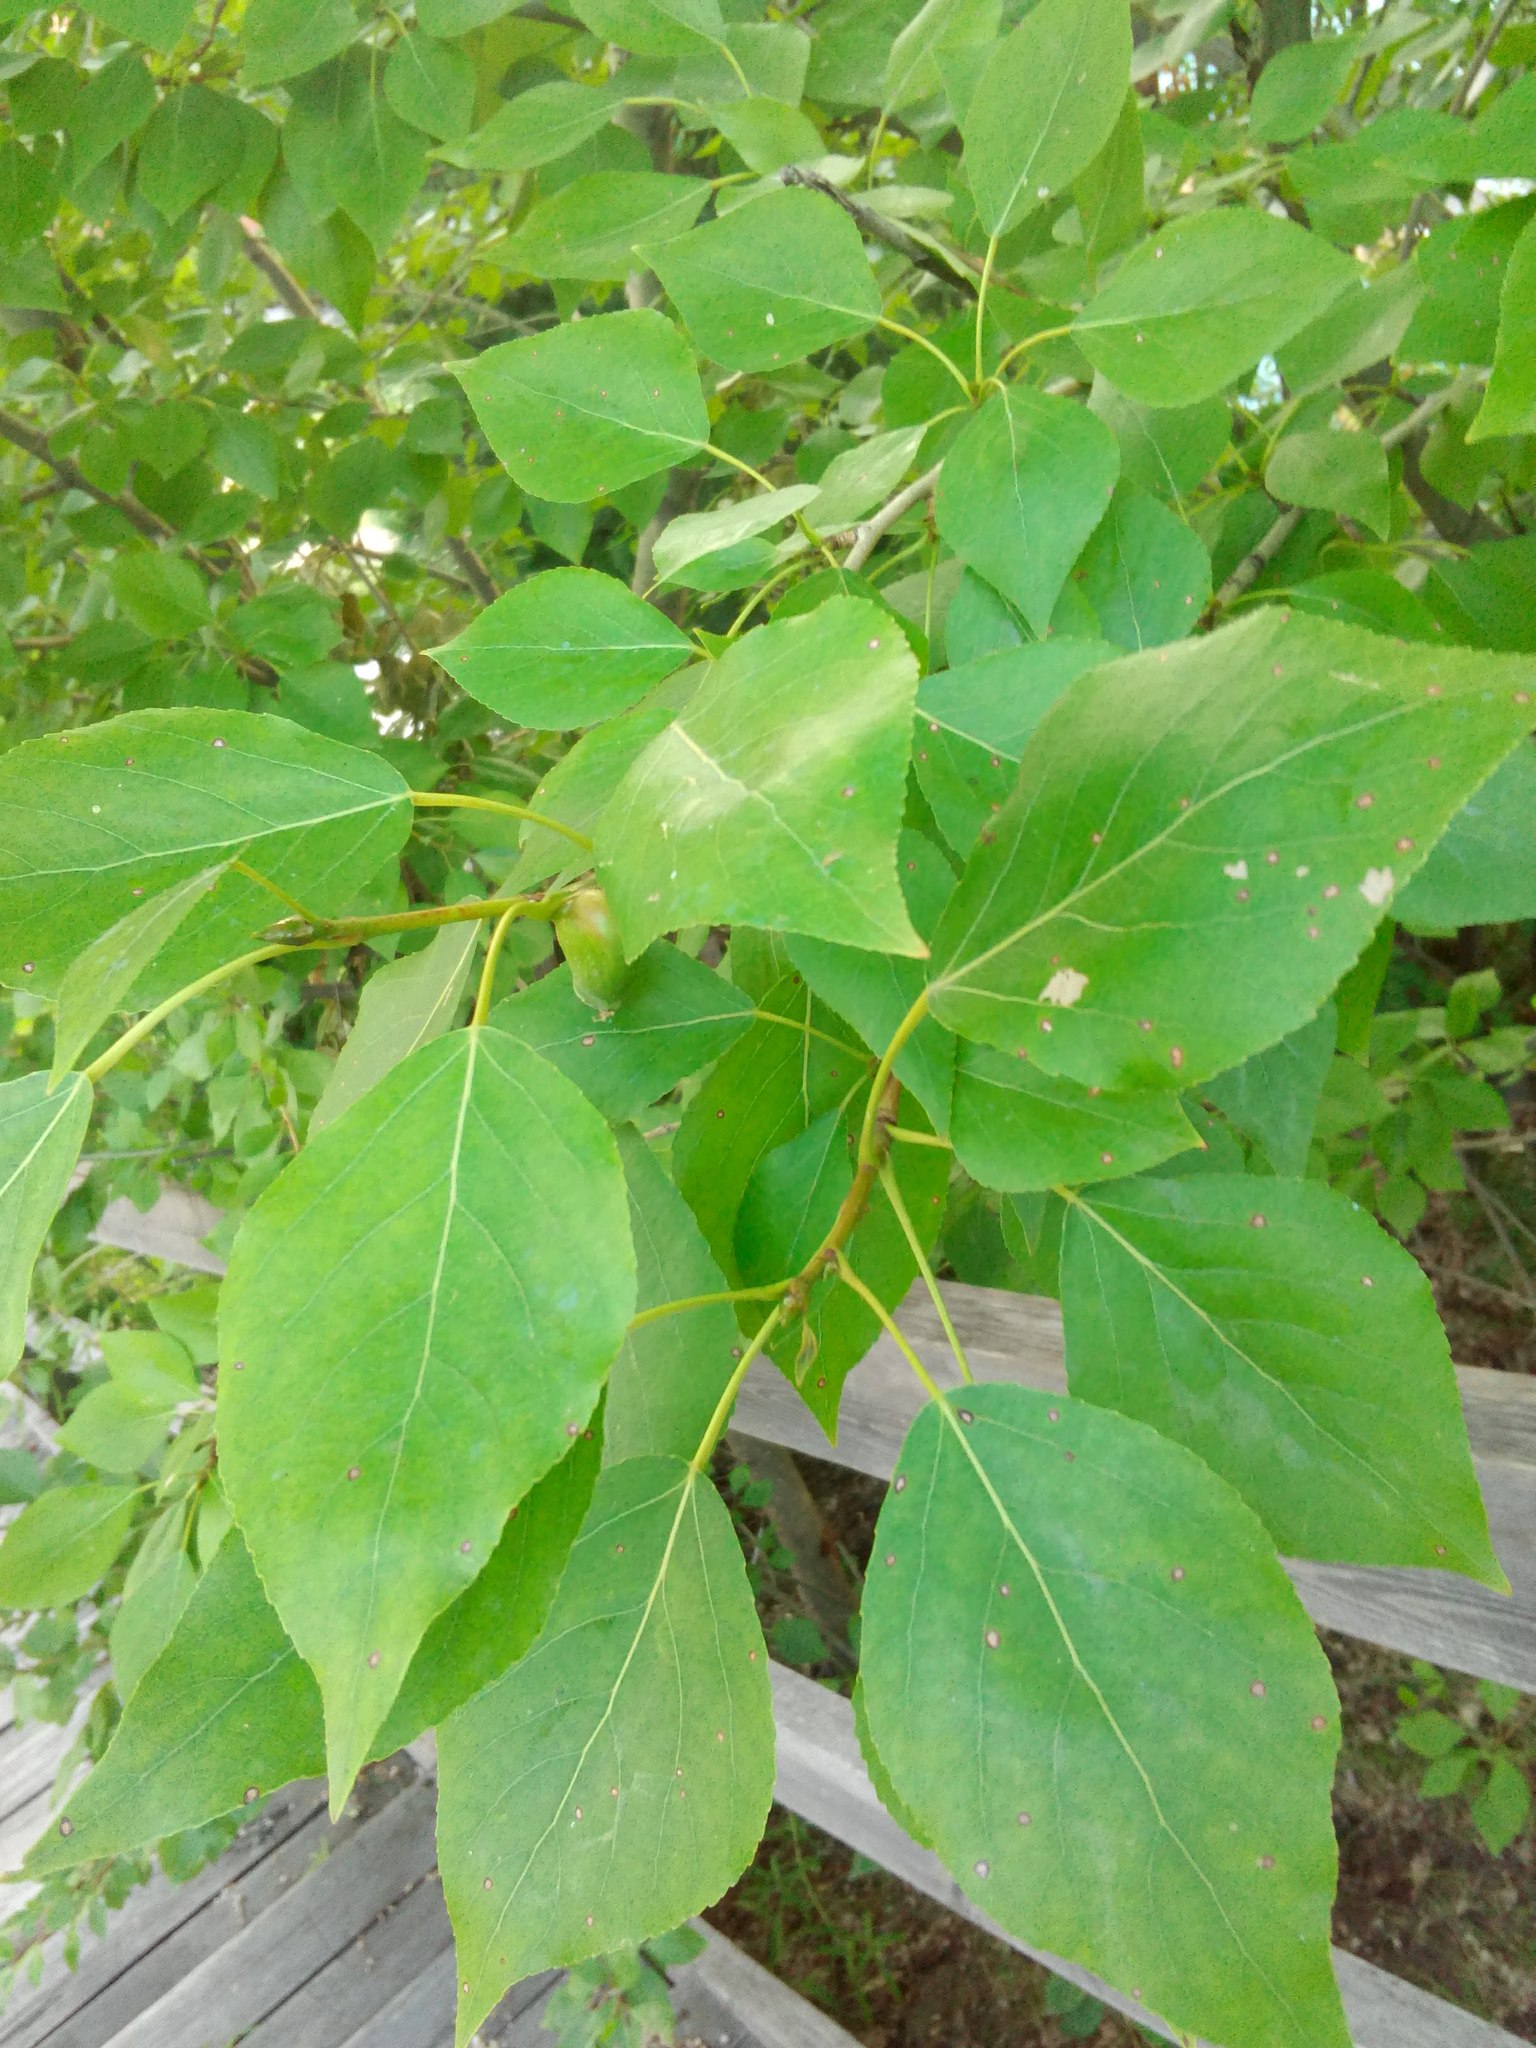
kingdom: Plantae
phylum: Tracheophyta
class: Magnoliopsida
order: Malpighiales
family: Salicaceae
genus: Populus
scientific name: Populus sibirica
